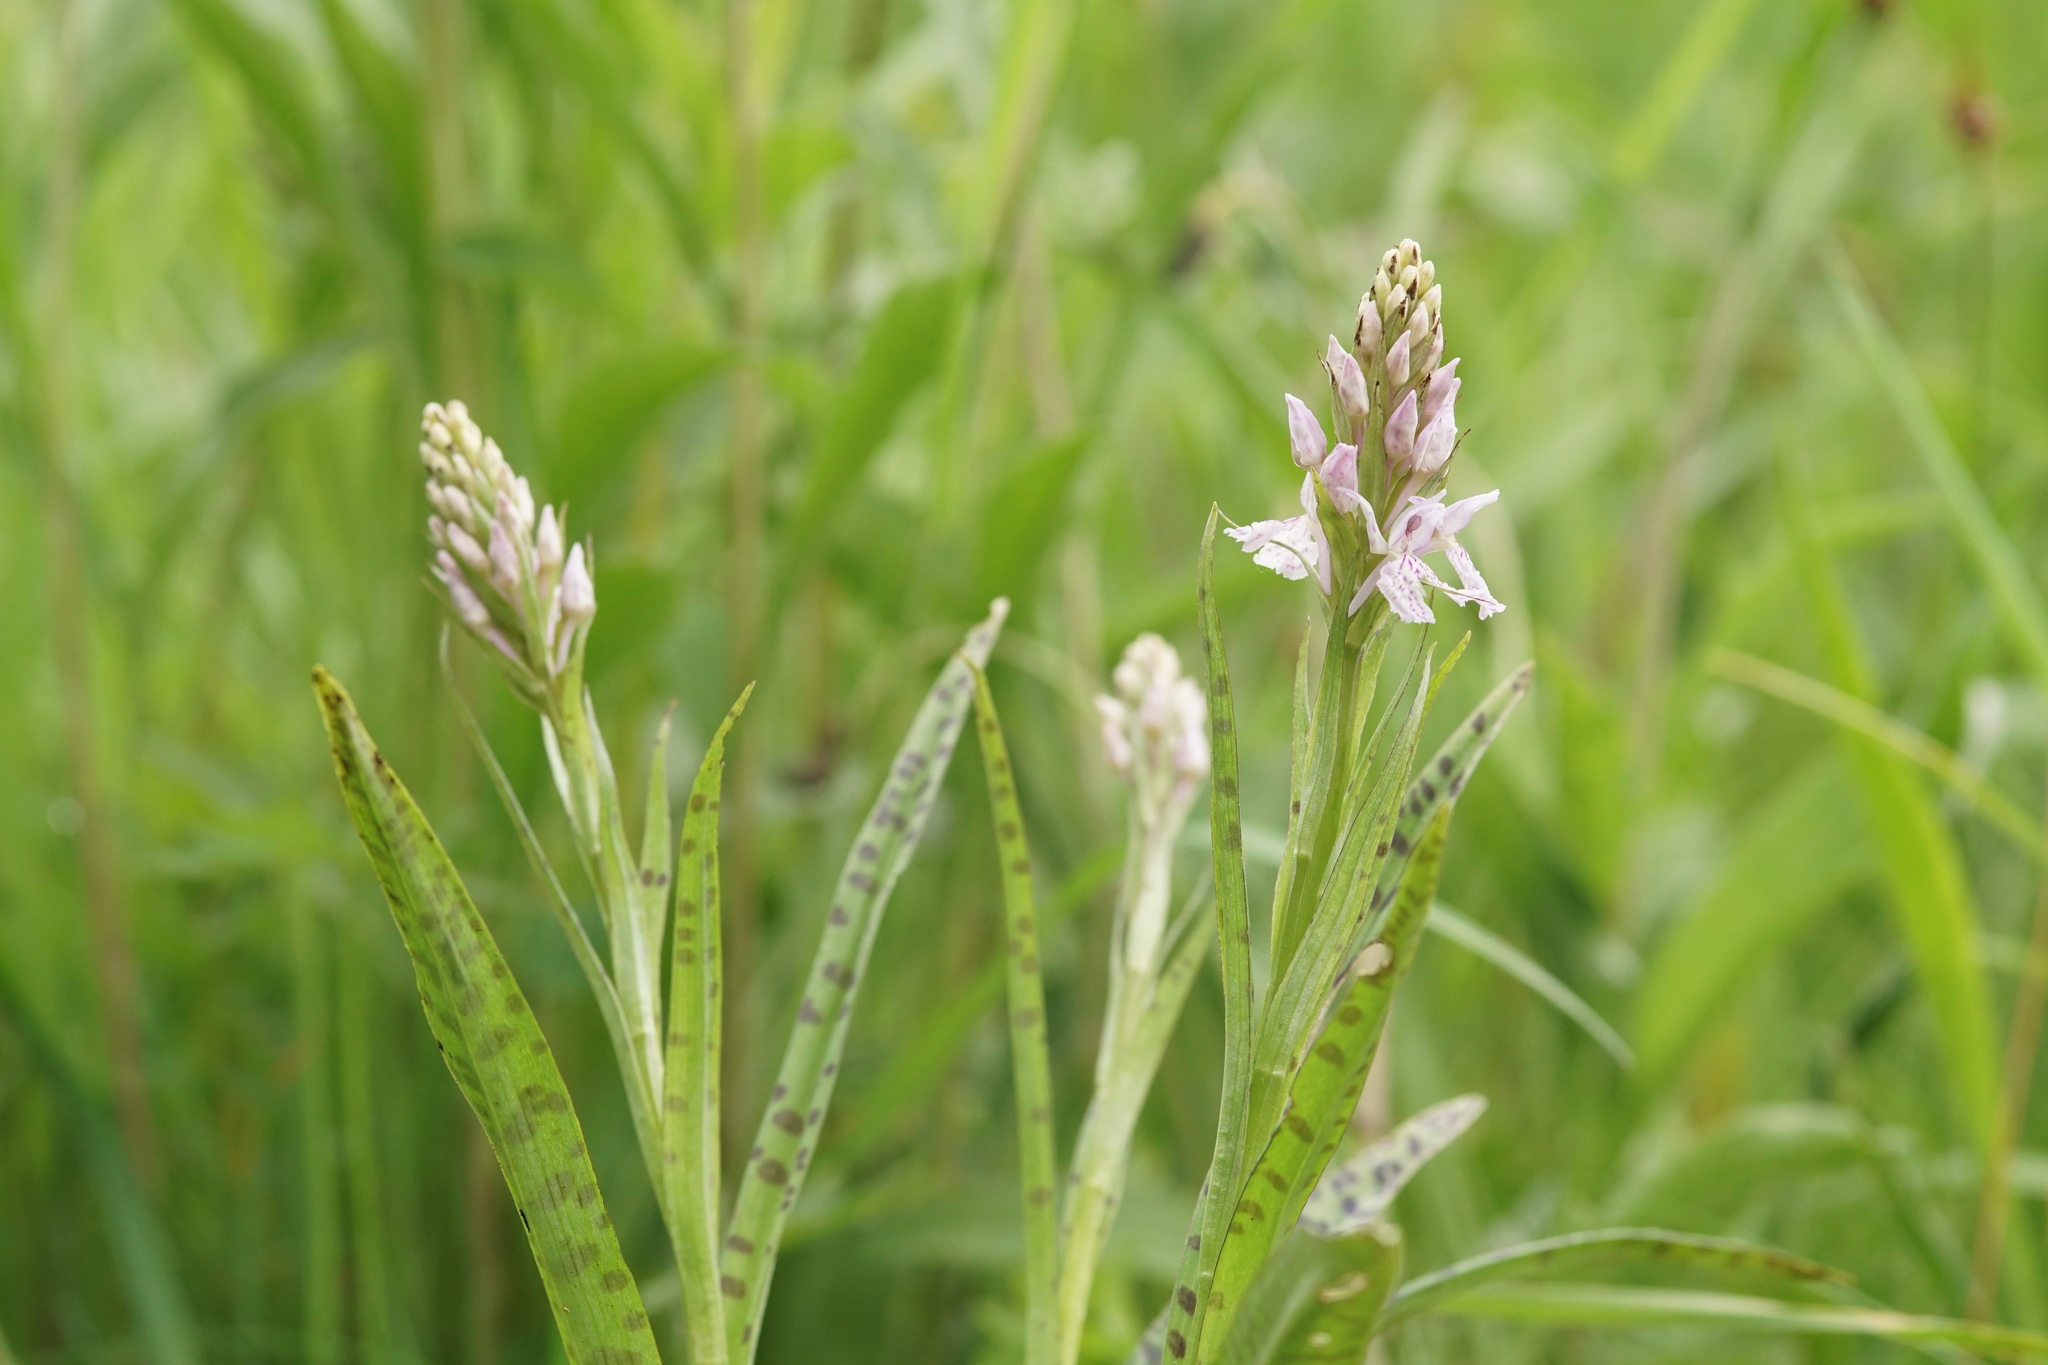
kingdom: Plantae
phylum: Tracheophyta
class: Liliopsida
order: Asparagales
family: Orchidaceae
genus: Dactylorhiza
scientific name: Dactylorhiza maculata
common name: Heath spotted-orchid
